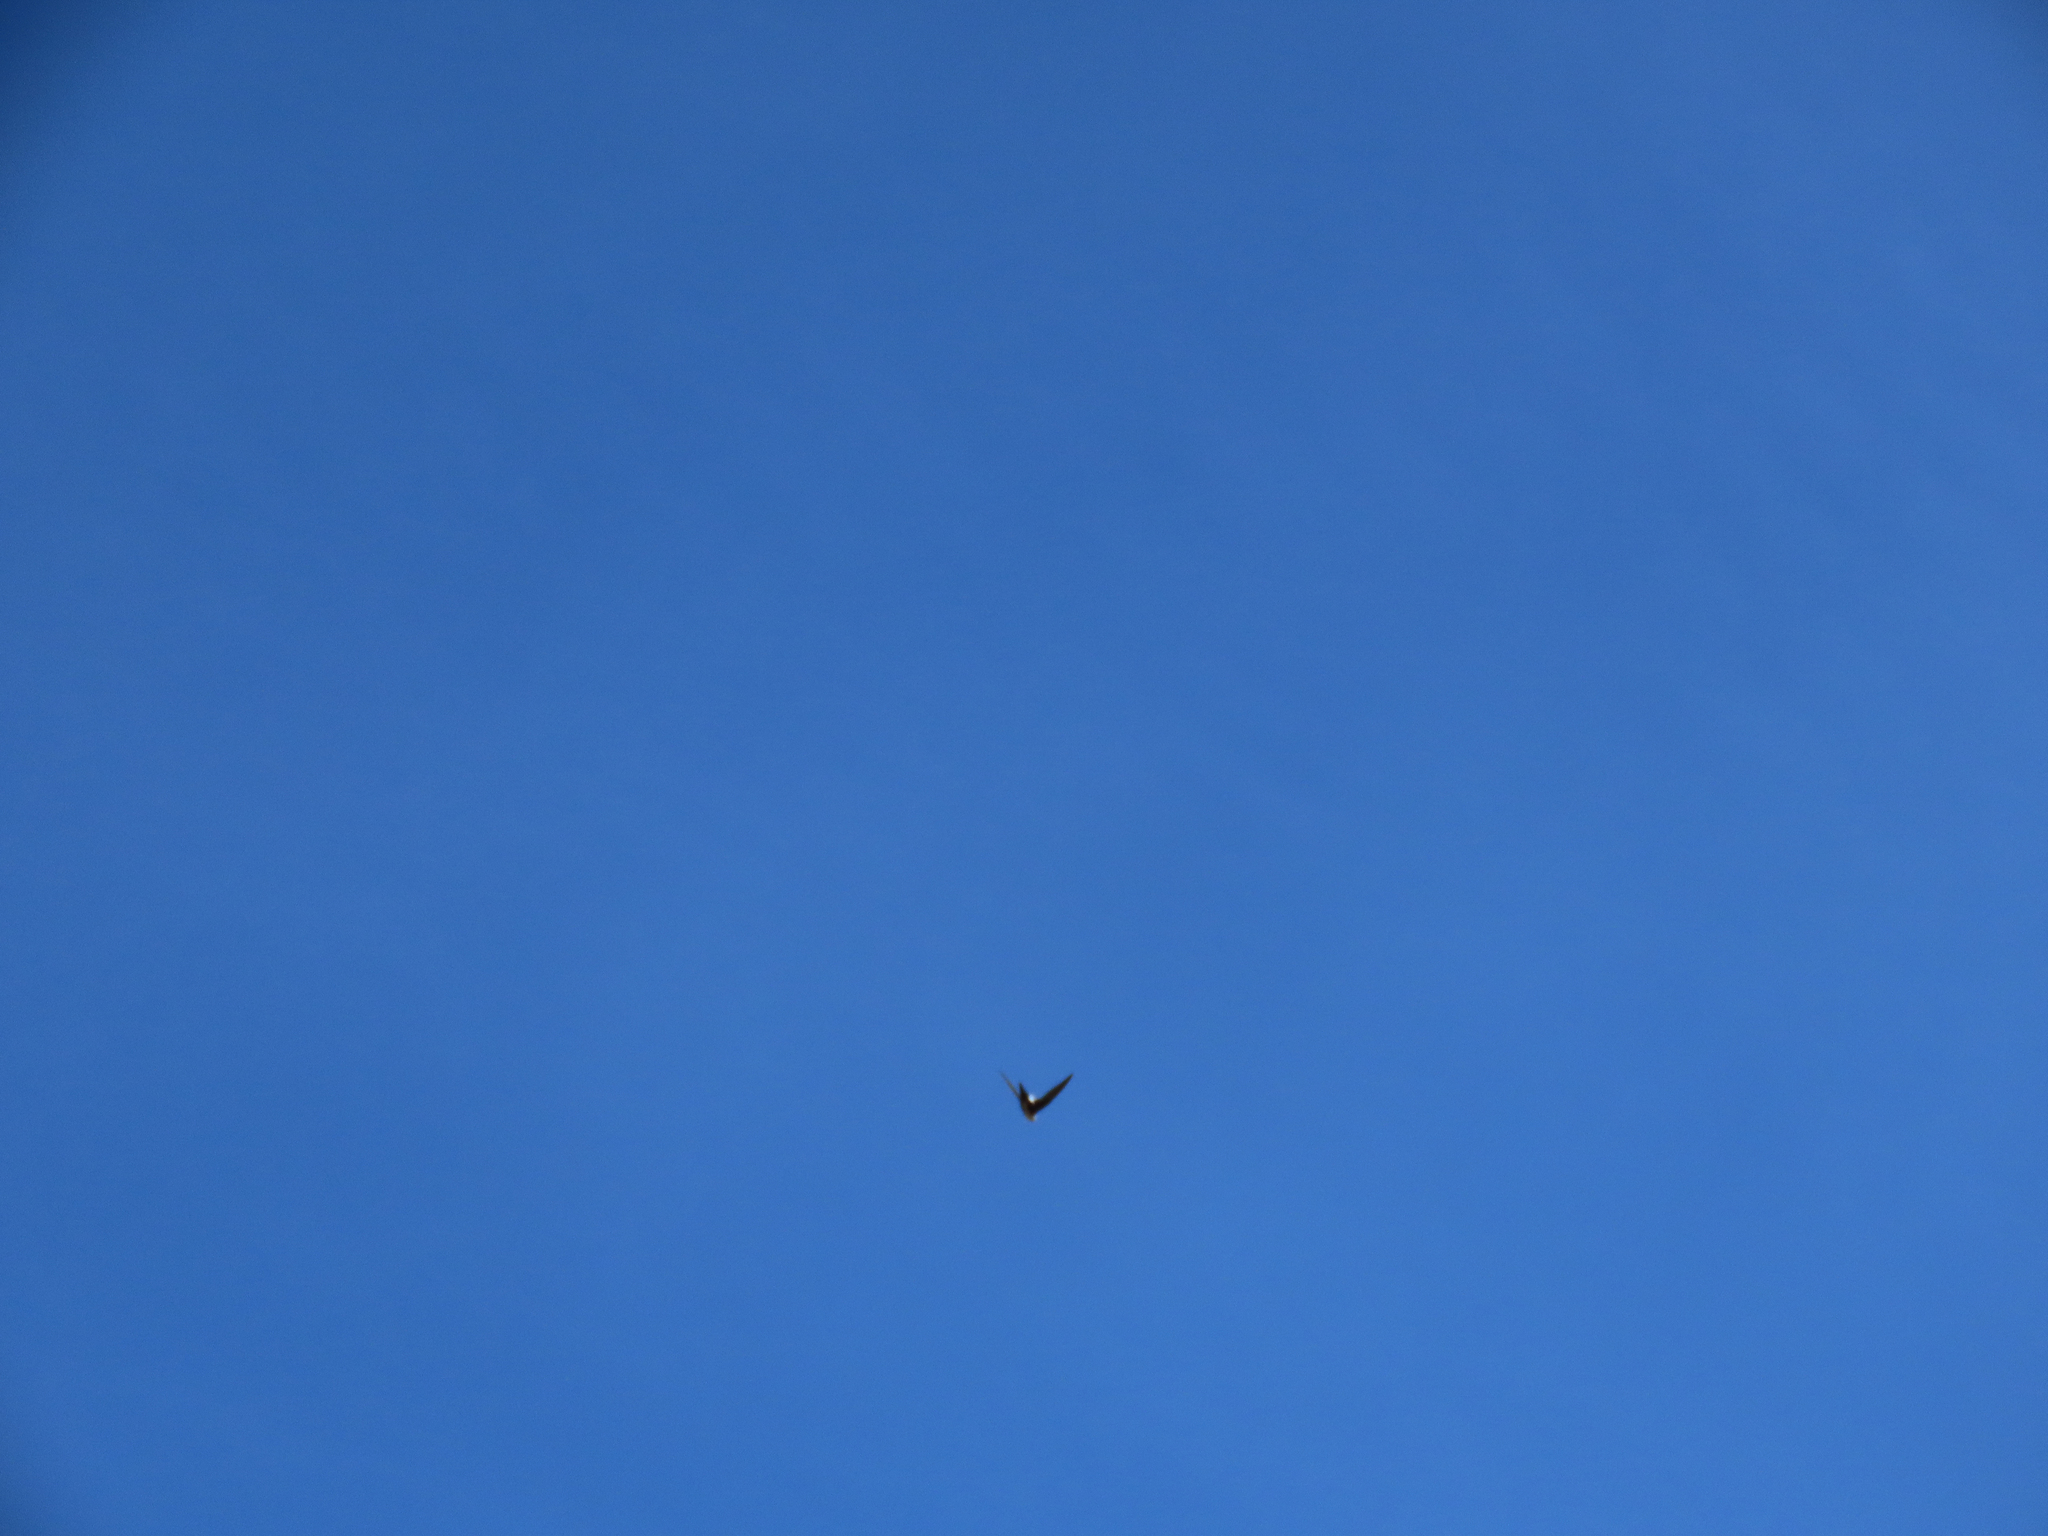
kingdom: Animalia
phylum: Chordata
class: Aves
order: Apodiformes
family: Apodidae
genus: Aeronautes
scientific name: Aeronautes saxatalis
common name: White-throated swift
